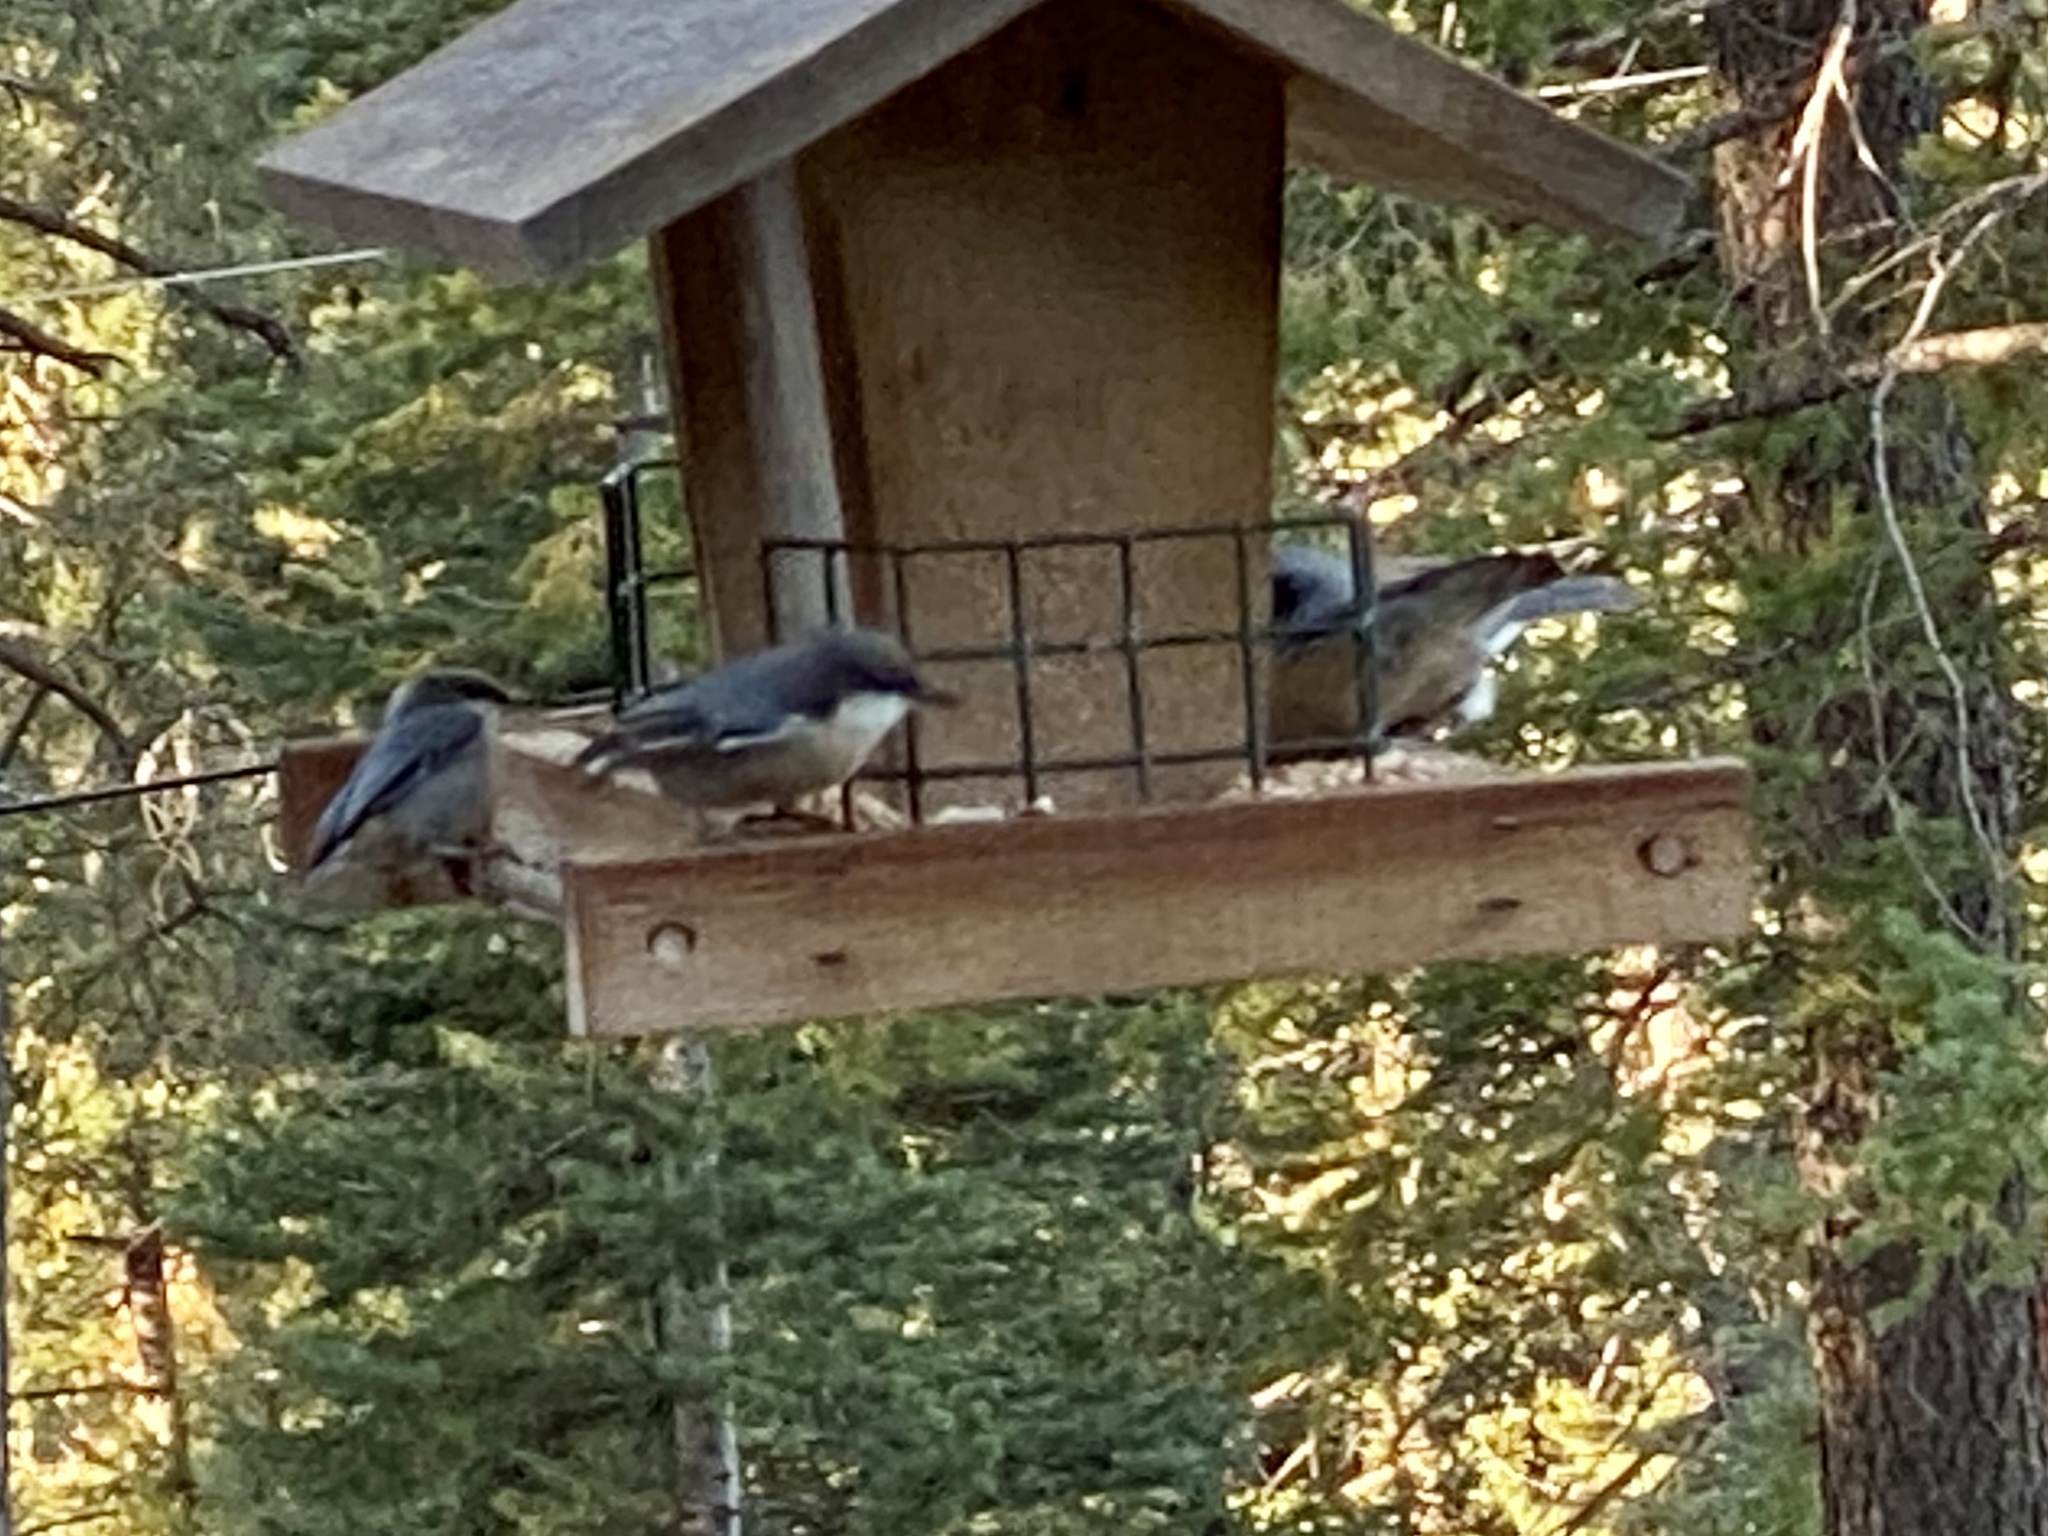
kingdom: Animalia
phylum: Chordata
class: Aves
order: Passeriformes
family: Sittidae
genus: Sitta
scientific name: Sitta pygmaea
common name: Pygmy nuthatch
